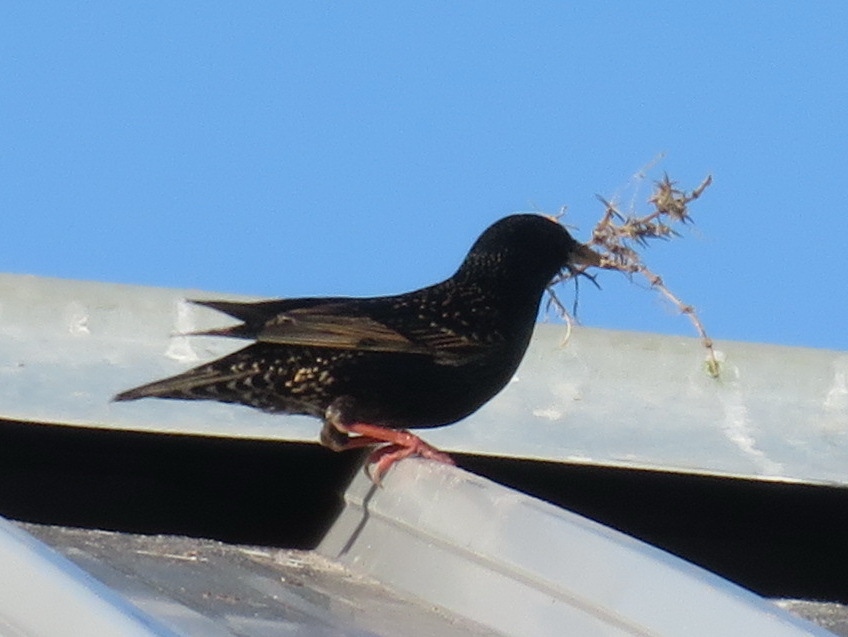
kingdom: Animalia
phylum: Chordata
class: Aves
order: Passeriformes
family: Sturnidae
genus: Sturnus
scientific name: Sturnus vulgaris
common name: Common starling
